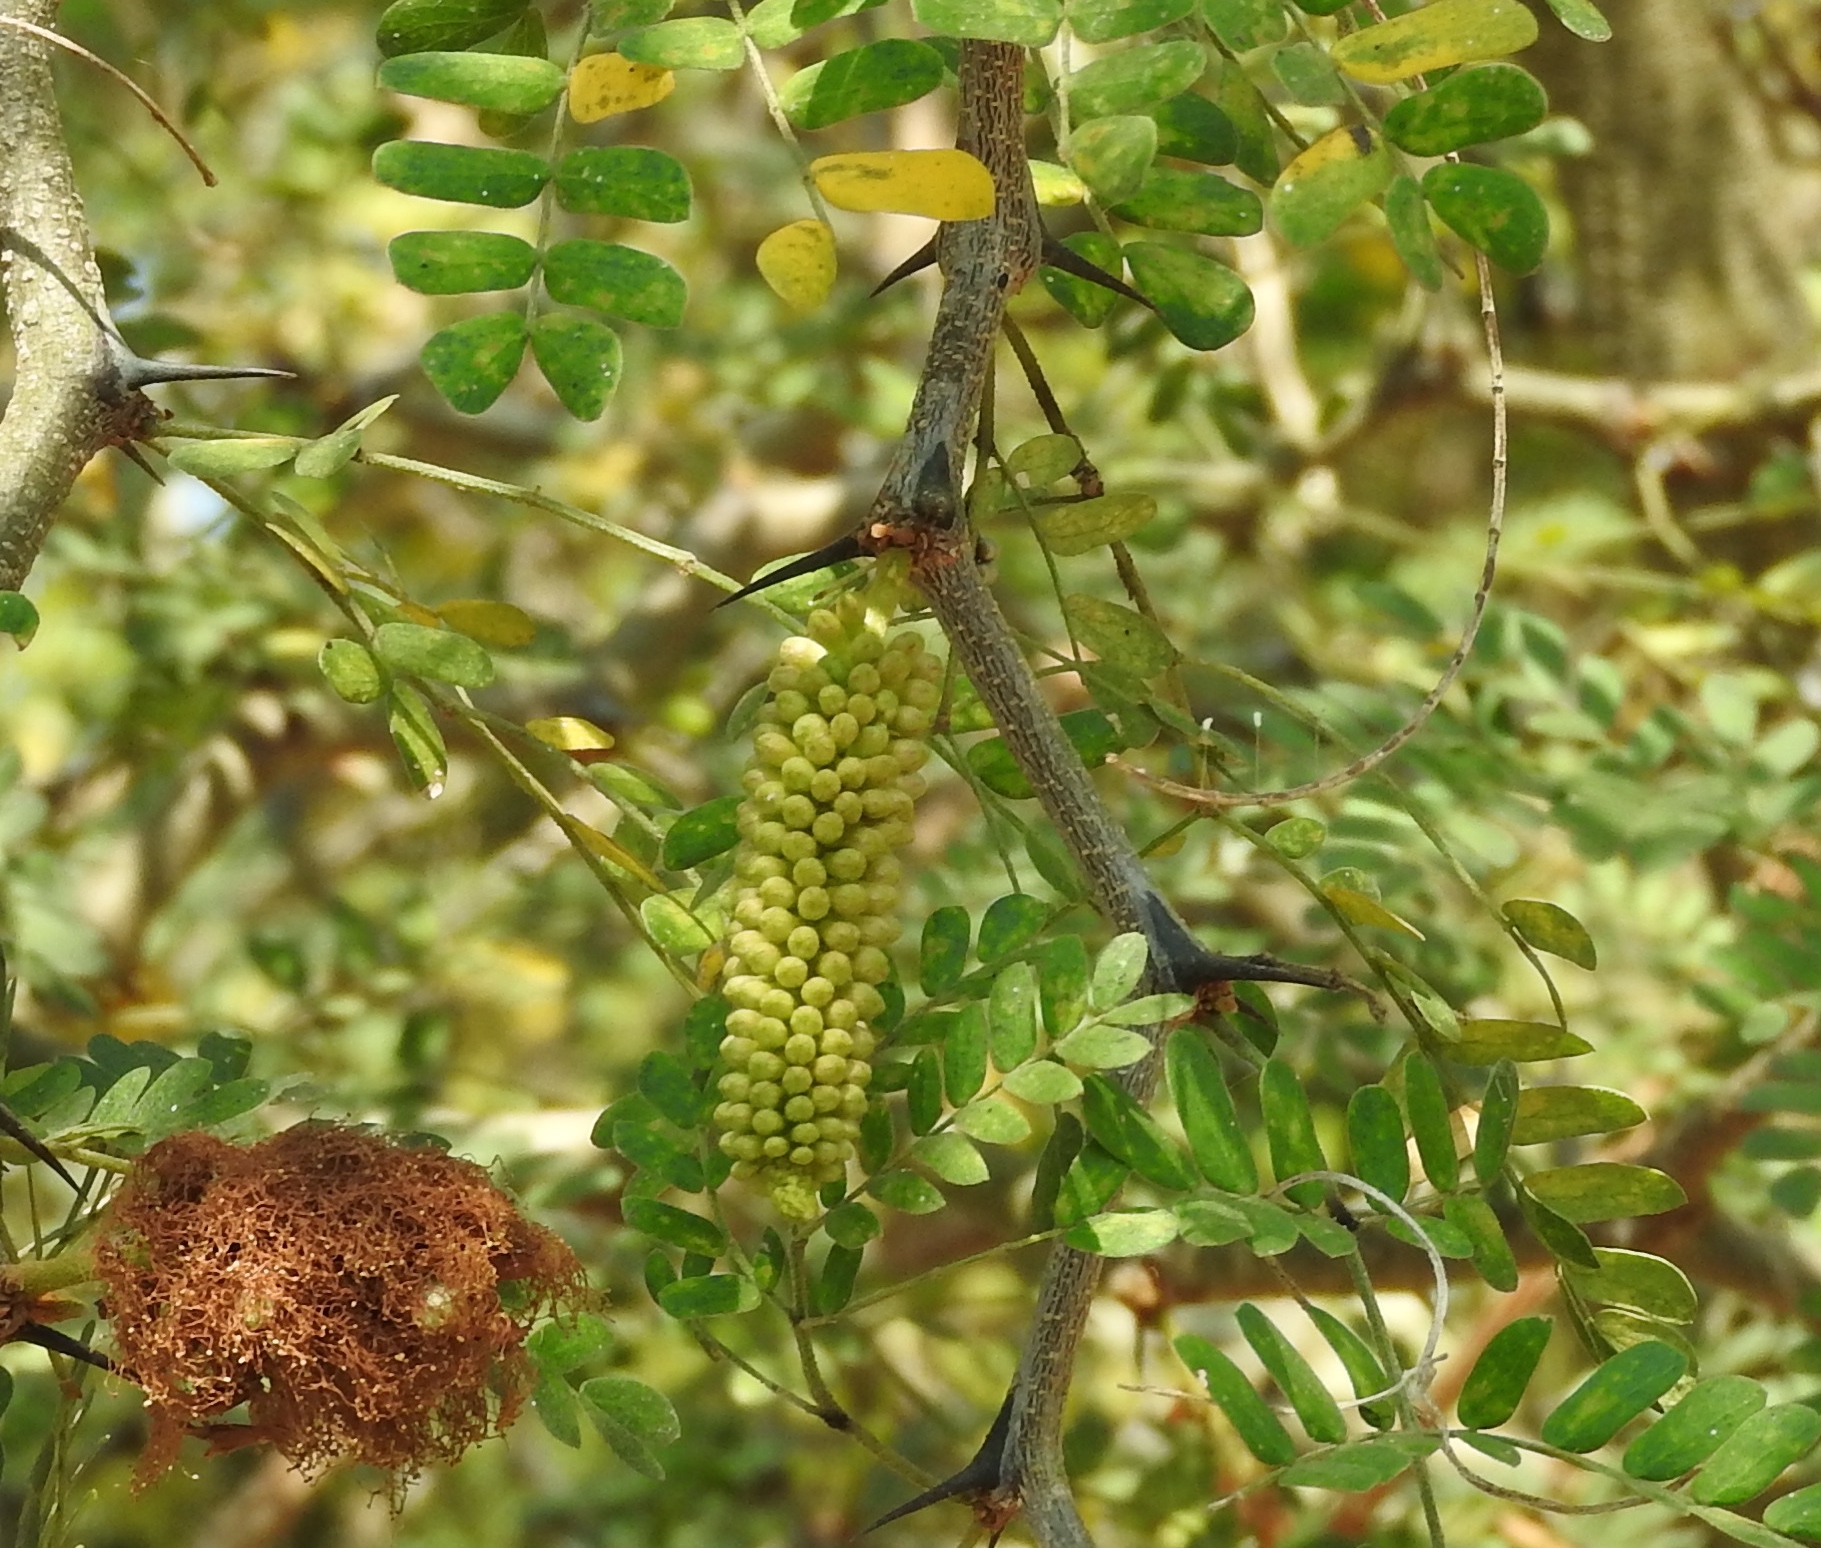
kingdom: Plantae
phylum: Tracheophyta
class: Magnoliopsida
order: Fabales
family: Fabaceae
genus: Ebenopsis
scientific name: Ebenopsis caesalpinioides
